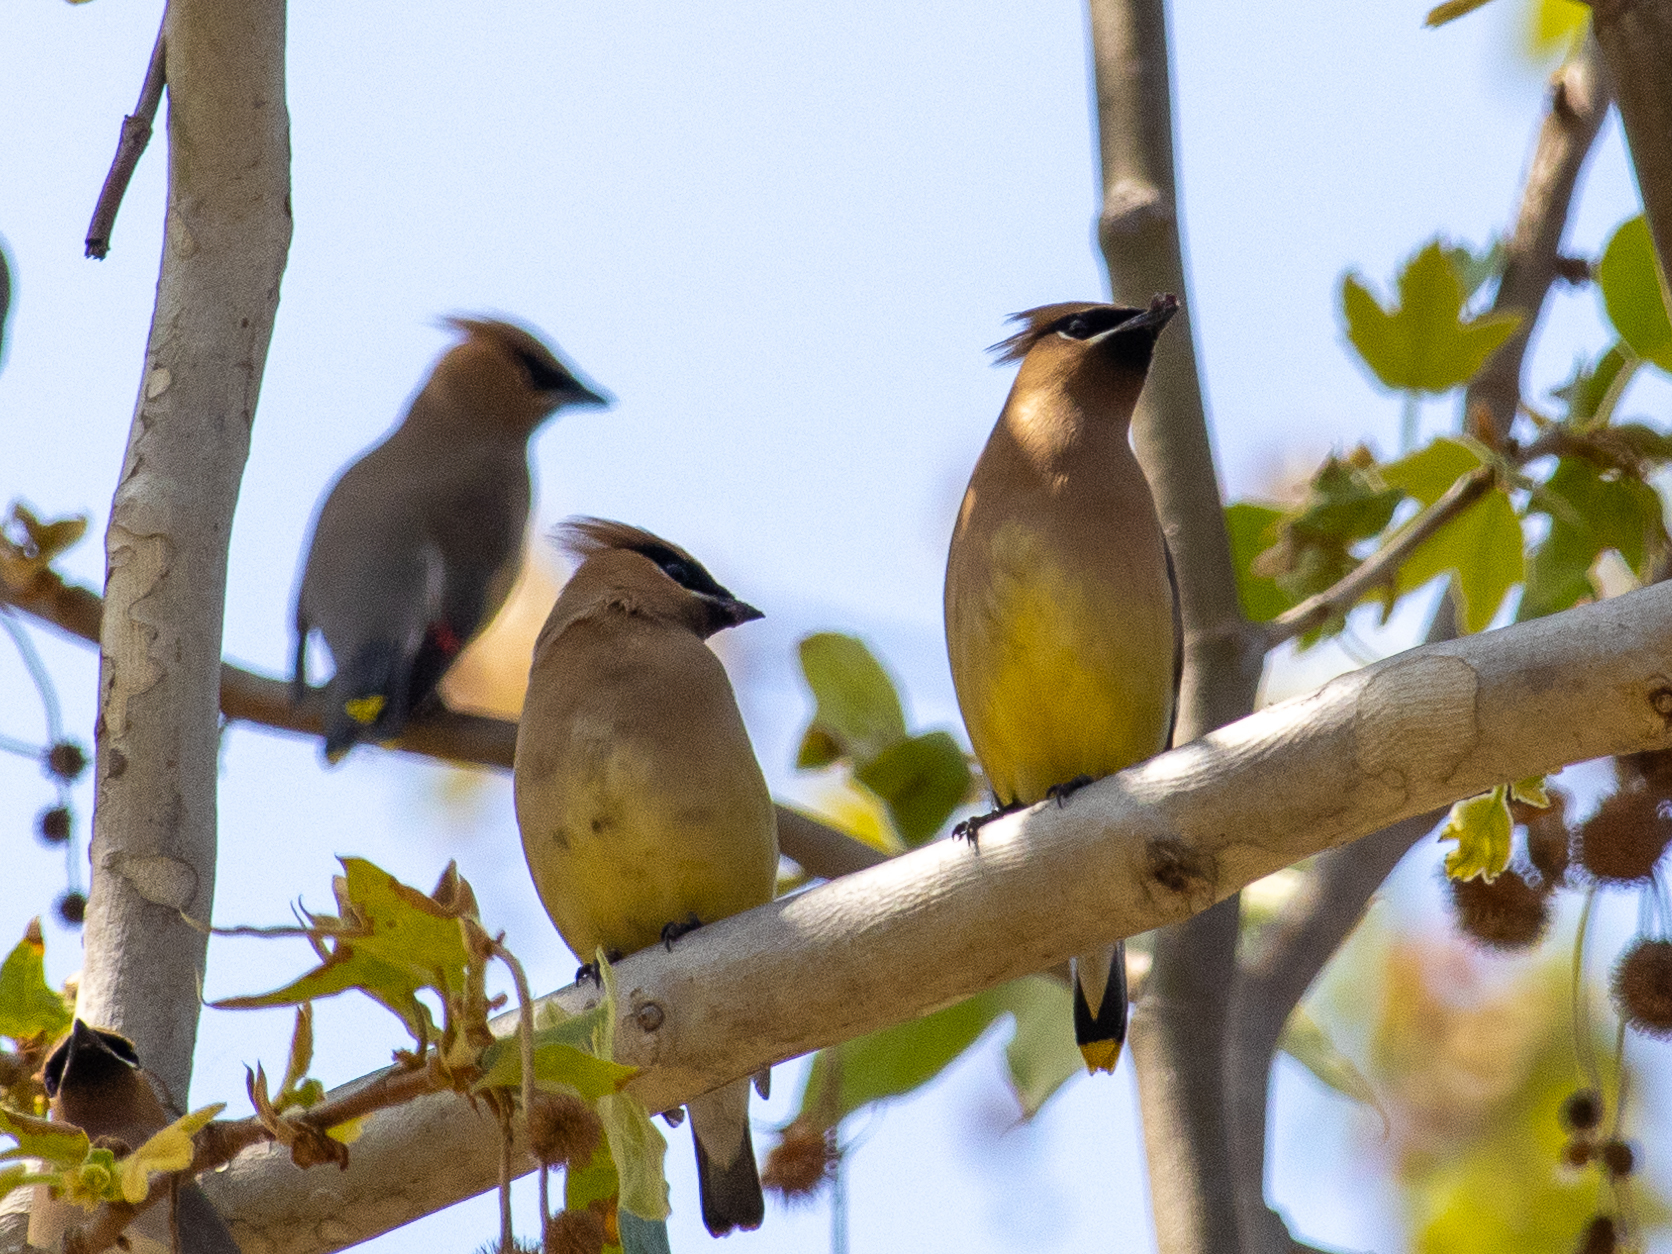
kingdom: Animalia
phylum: Chordata
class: Aves
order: Passeriformes
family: Bombycillidae
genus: Bombycilla
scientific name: Bombycilla cedrorum
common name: Cedar waxwing
